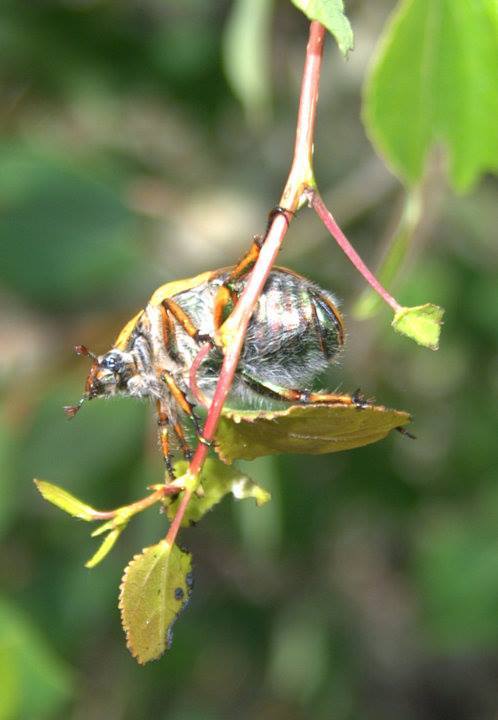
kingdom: Animalia
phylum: Arthropoda
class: Insecta
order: Coleoptera
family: Scarabaeidae
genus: Cotalpa
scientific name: Cotalpa lanigera
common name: Goldsmith beetle
